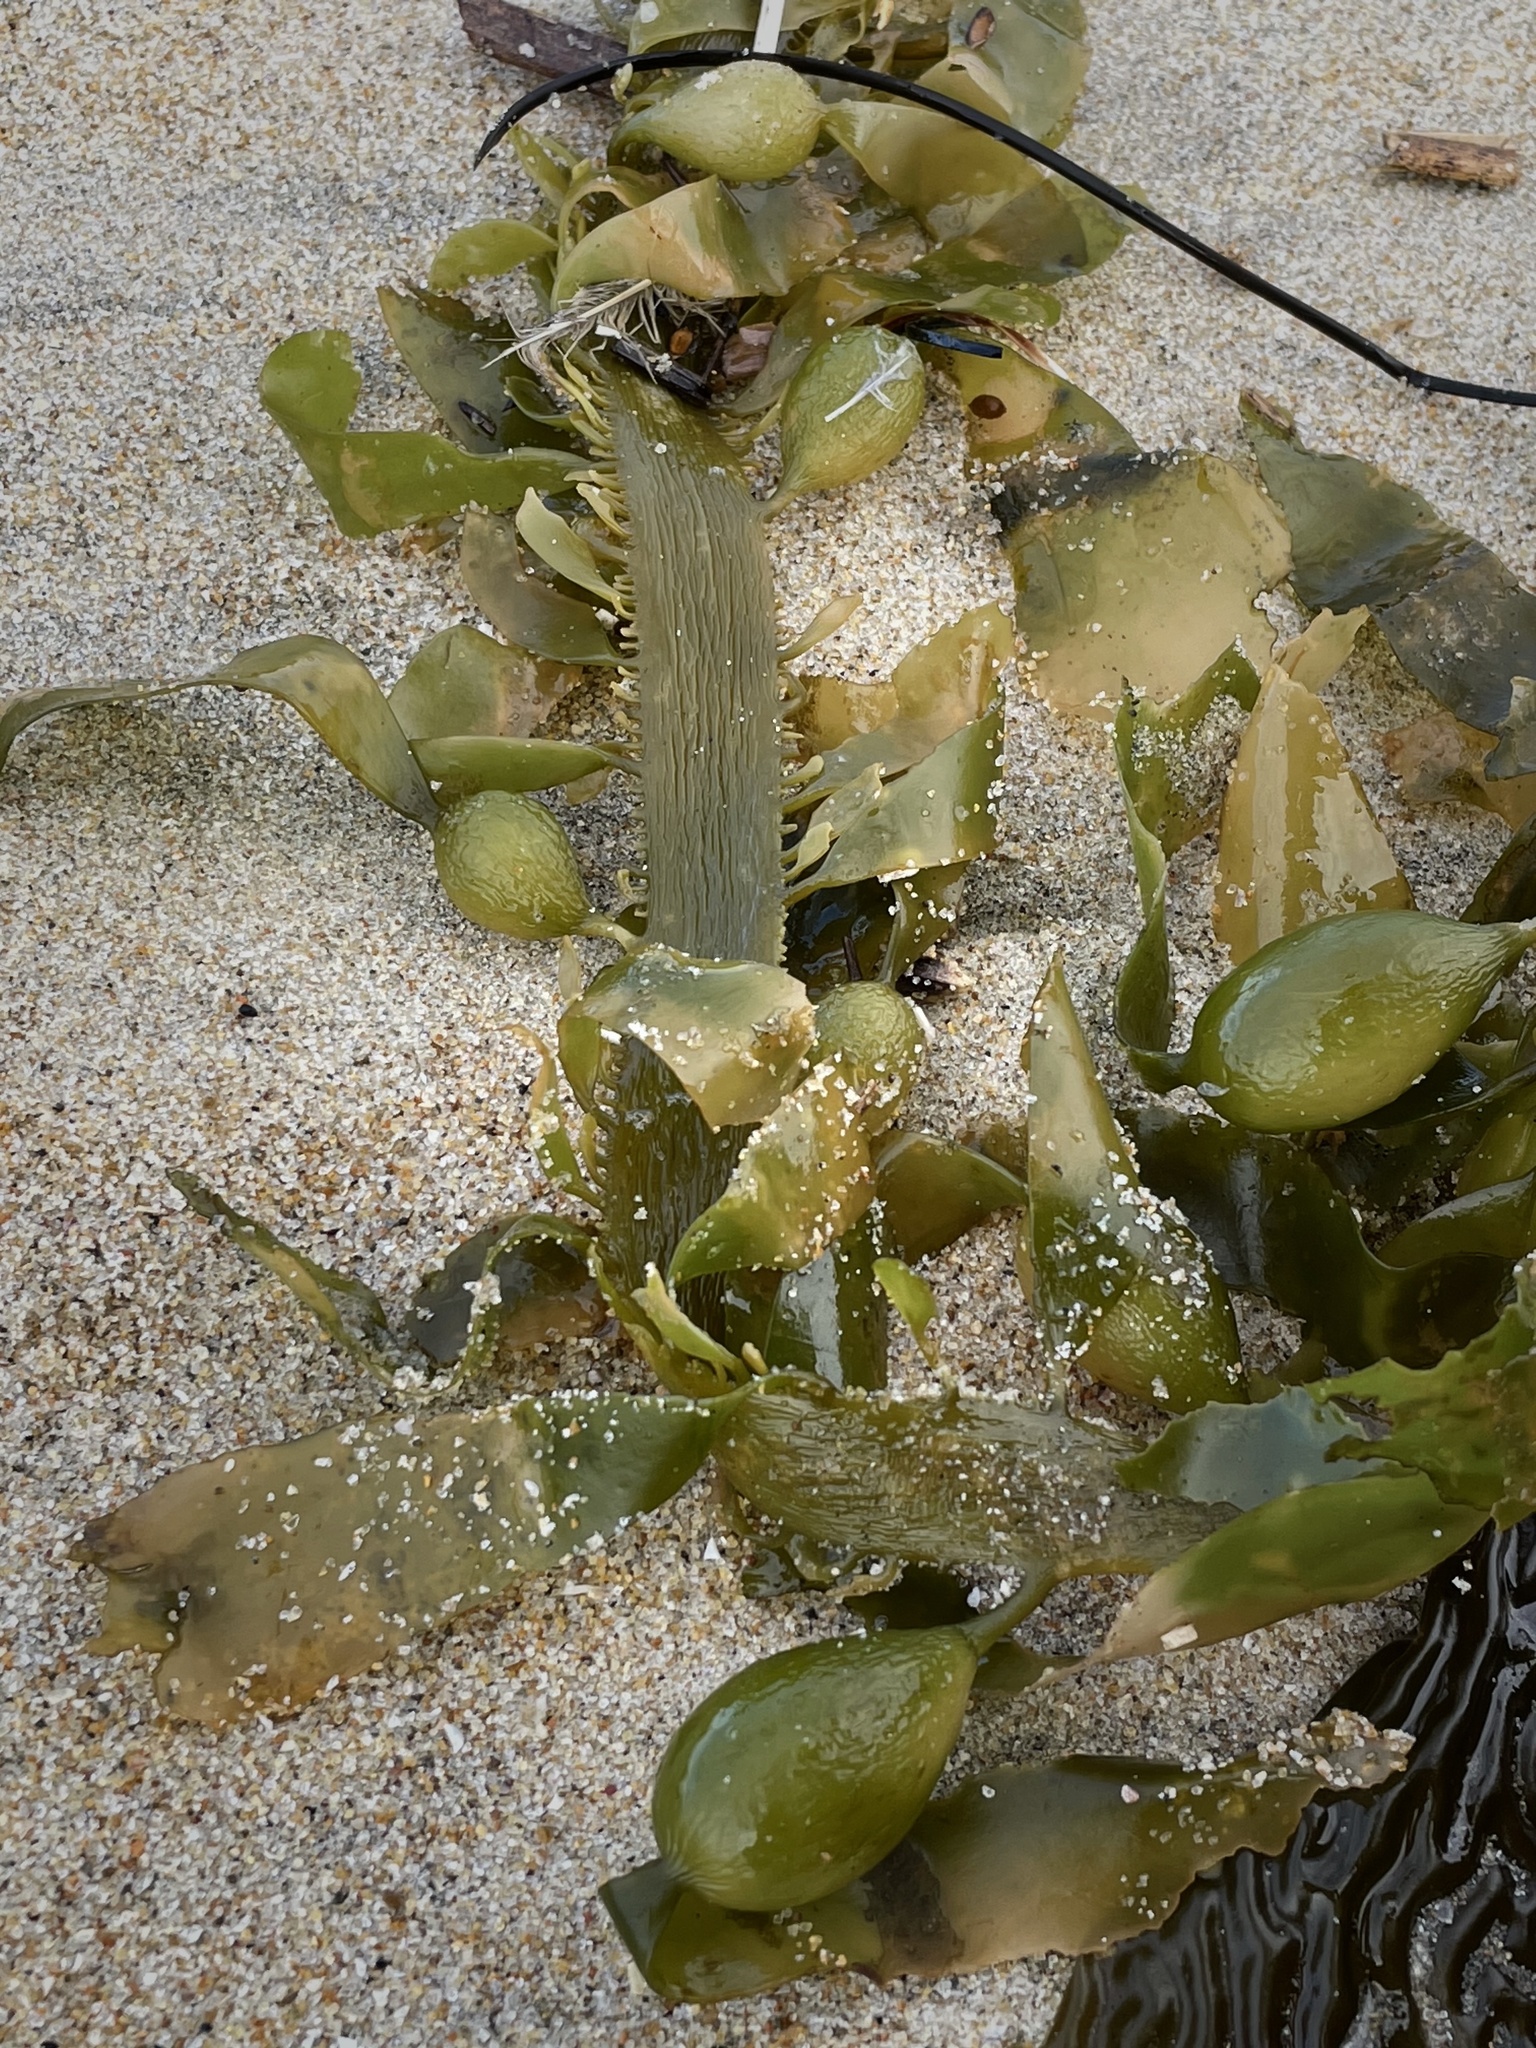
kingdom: Chromista
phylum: Ochrophyta
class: Phaeophyceae
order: Laminariales
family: Lessoniaceae
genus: Egregia
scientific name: Egregia menziesii
